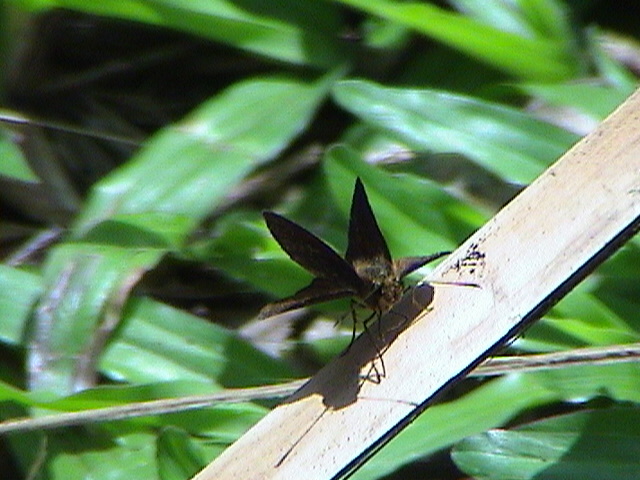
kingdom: Animalia
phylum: Arthropoda
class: Insecta
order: Lepidoptera
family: Hesperiidae
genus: Iambrix
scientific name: Iambrix salsala
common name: Chestnut bob
